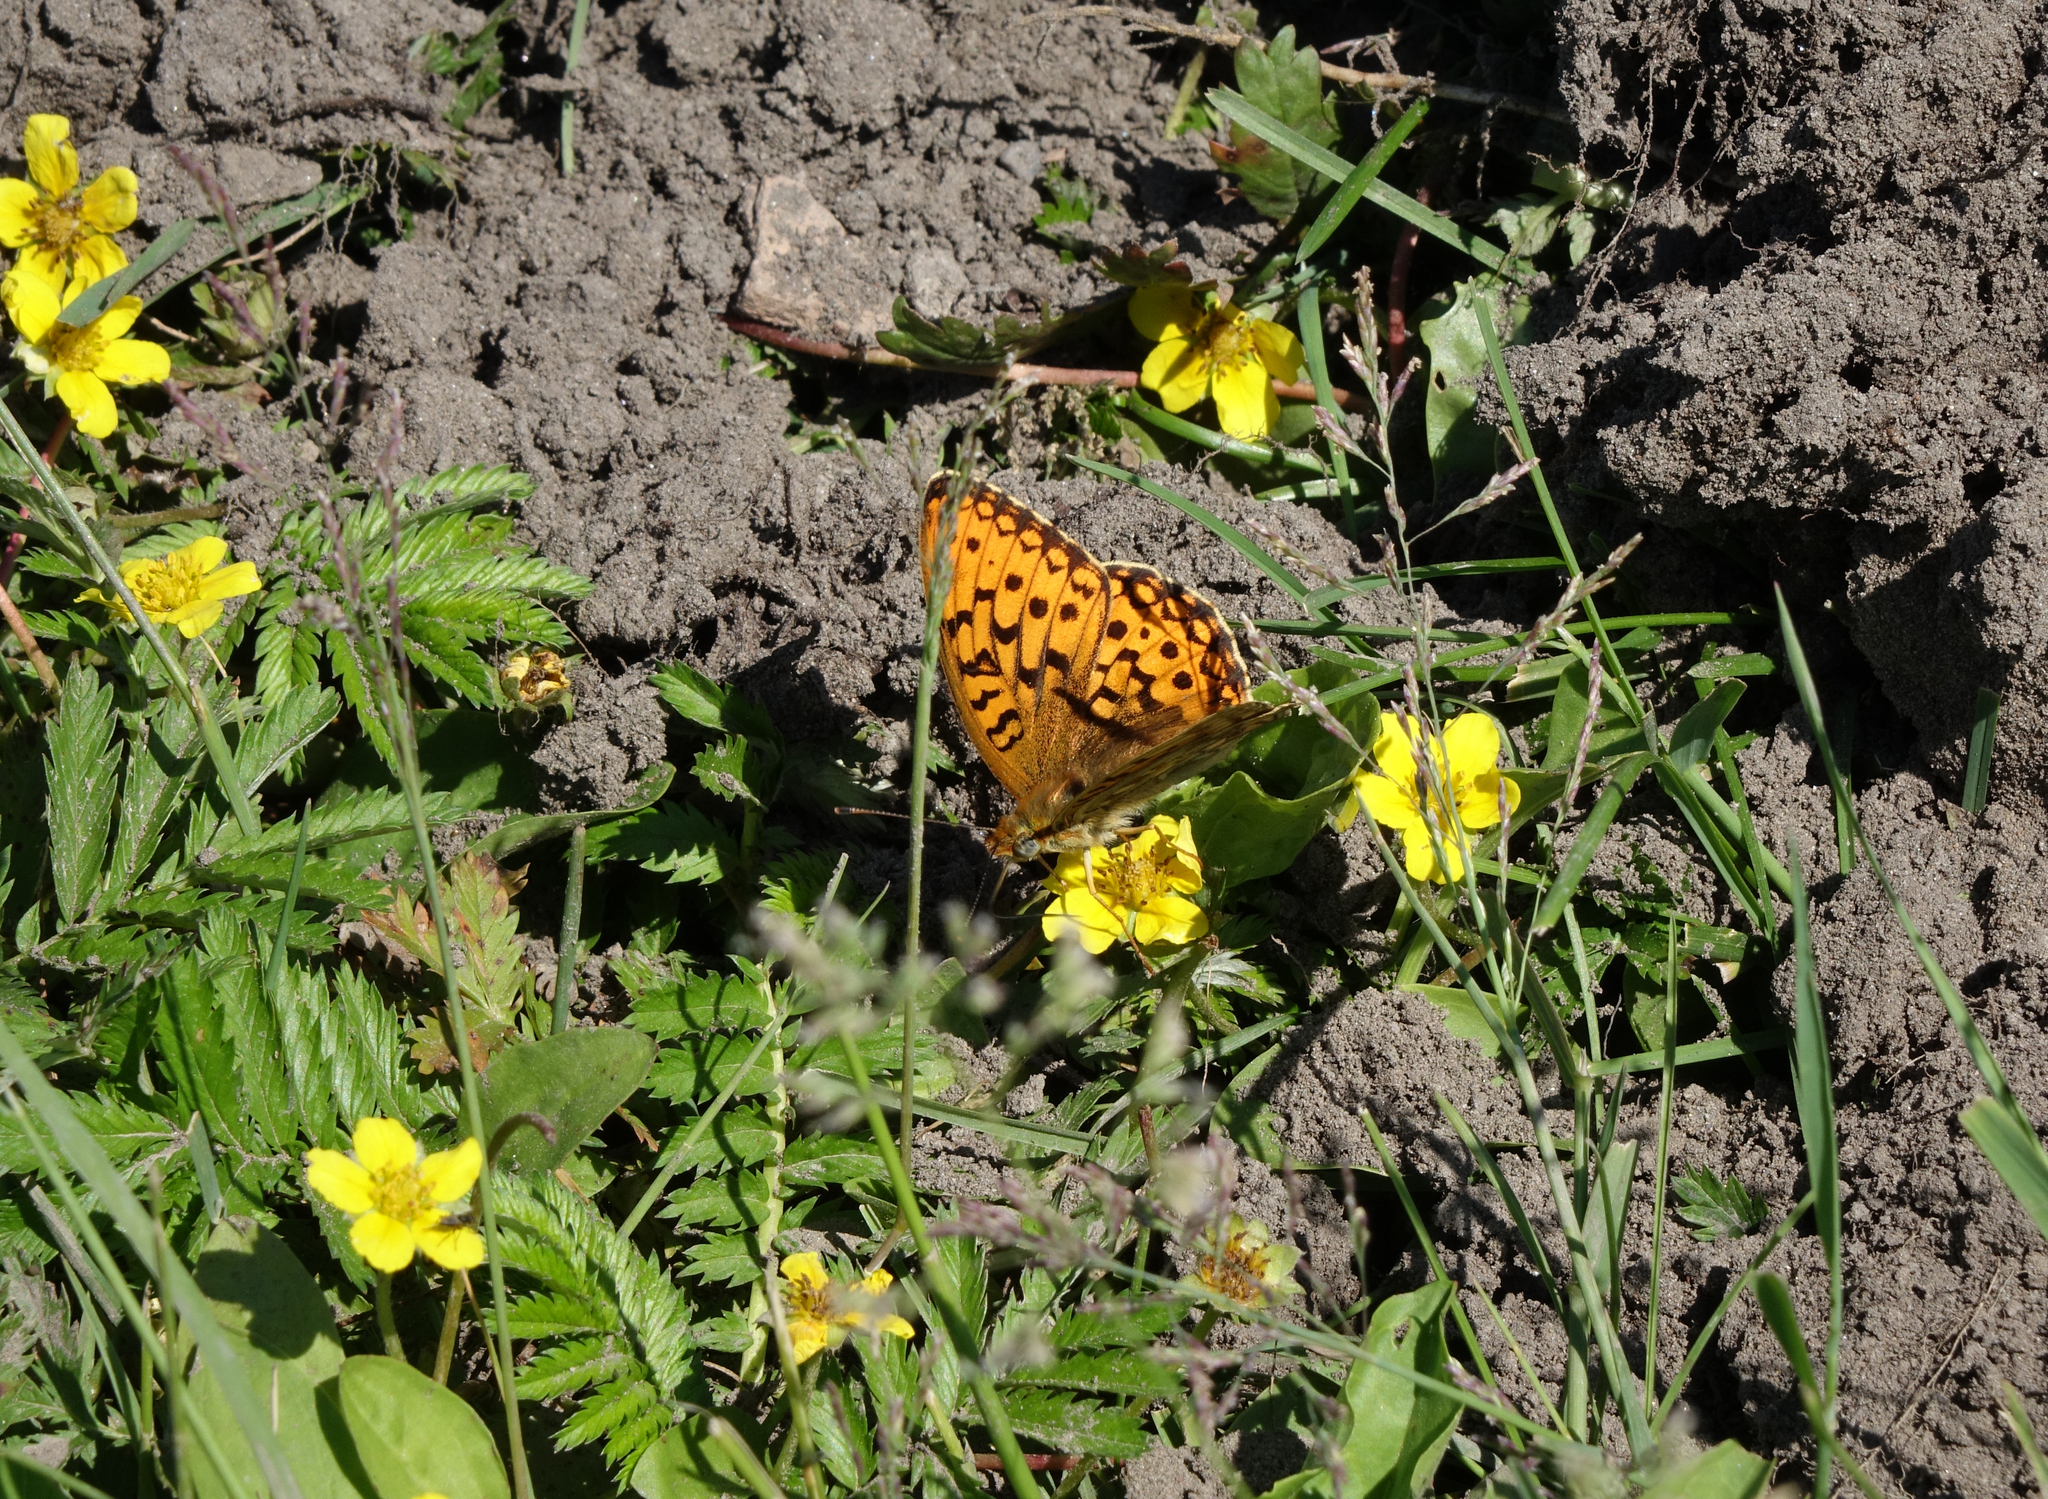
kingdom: Animalia
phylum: Arthropoda
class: Insecta
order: Lepidoptera
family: Nymphalidae
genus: Fabriciana
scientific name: Fabriciana adippe
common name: High brown fritillary
